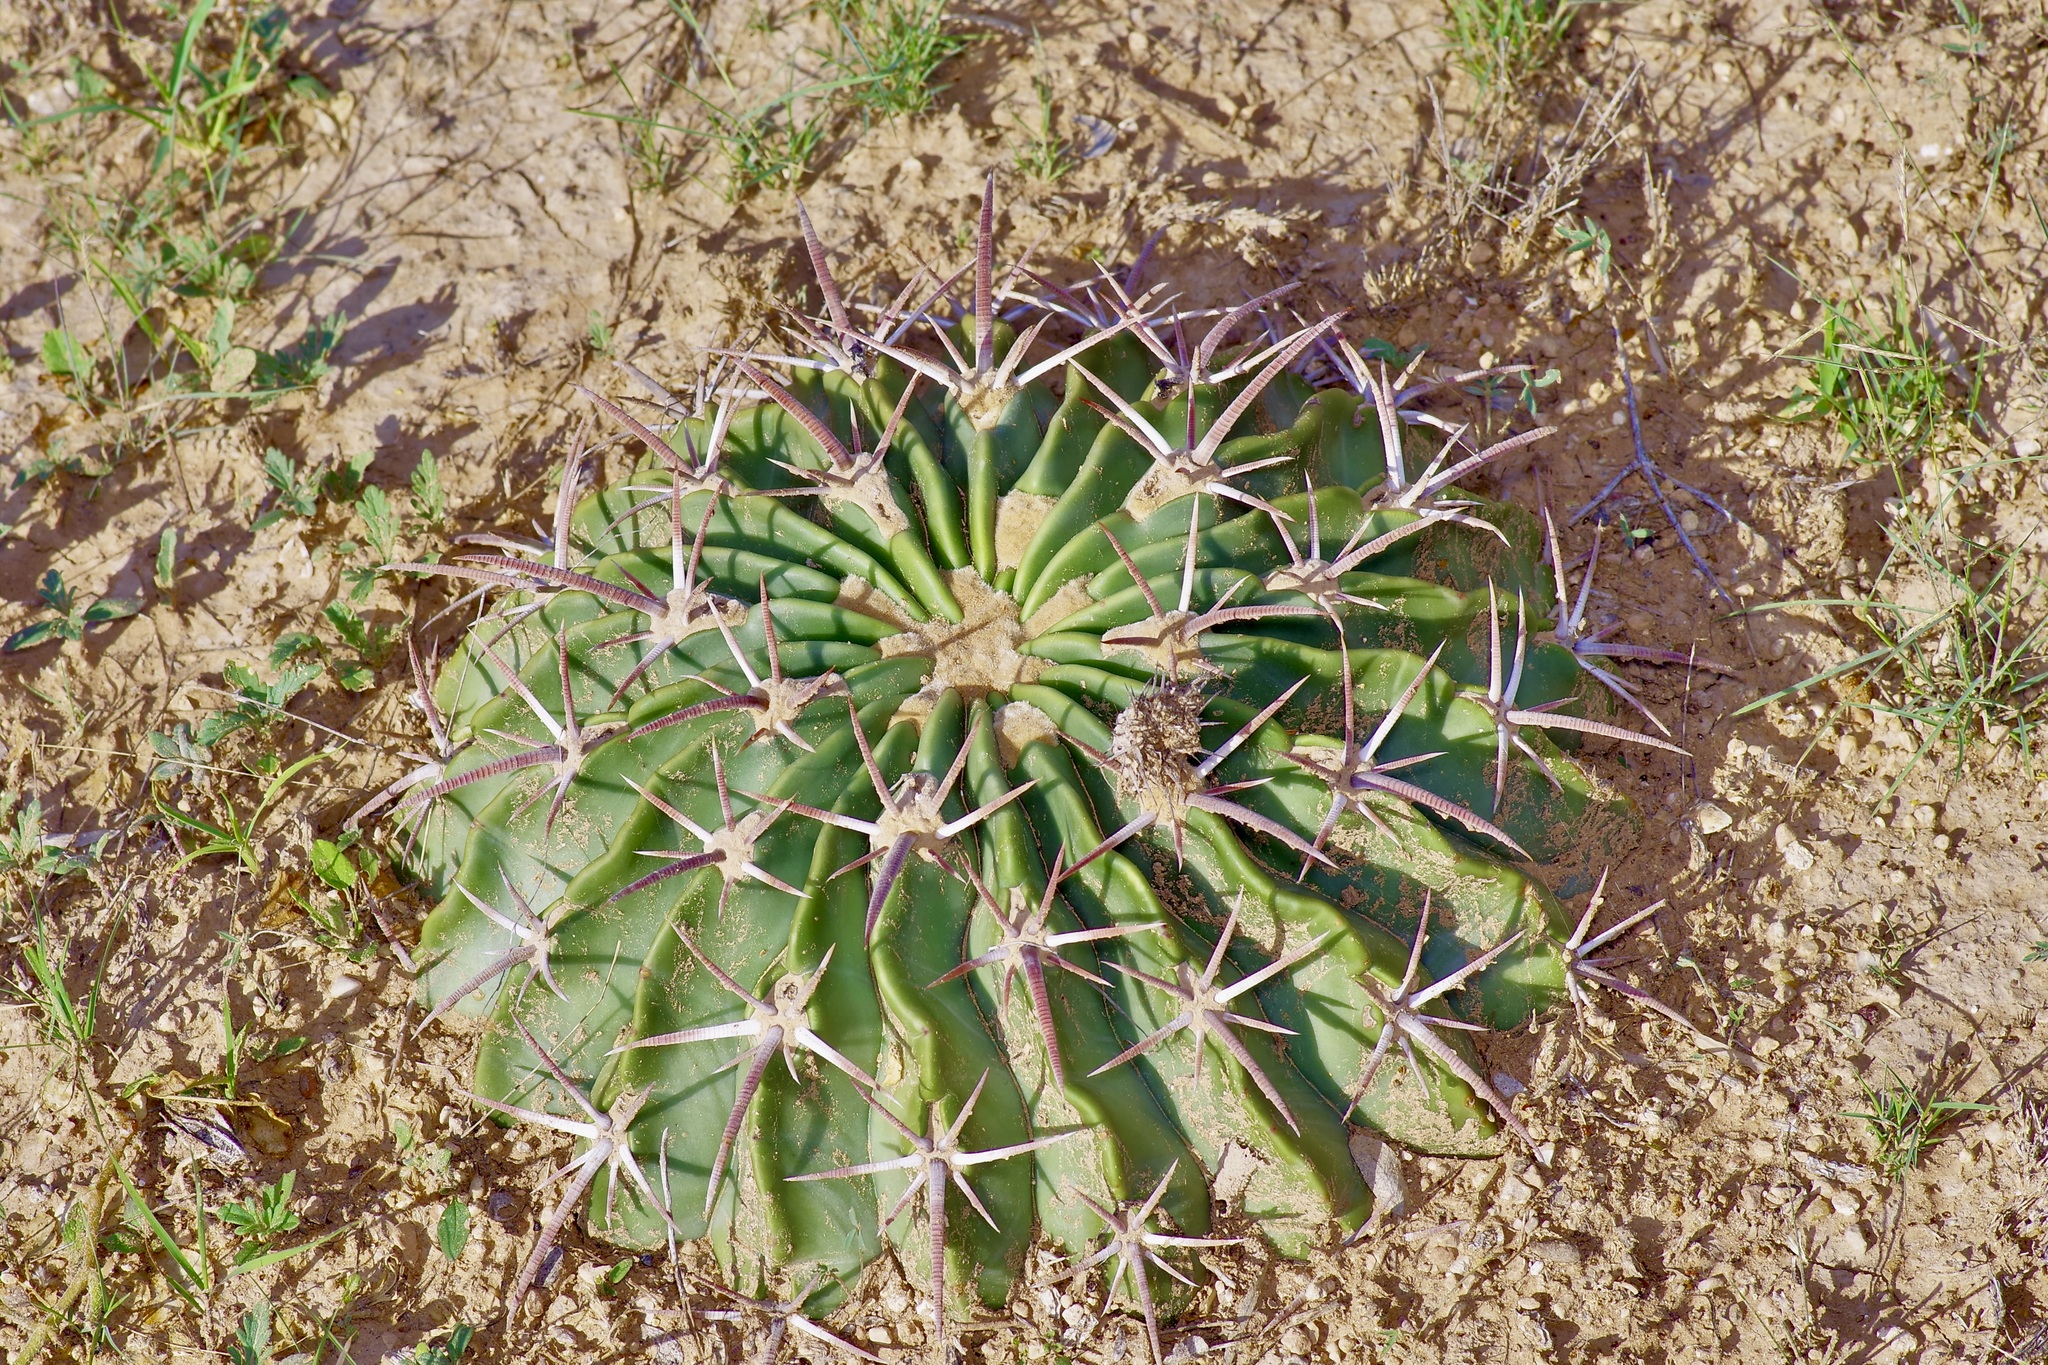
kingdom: Plantae
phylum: Tracheophyta
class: Magnoliopsida
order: Caryophyllales
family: Cactaceae
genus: Echinocactus
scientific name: Echinocactus texensis
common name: Devil's pincushion
